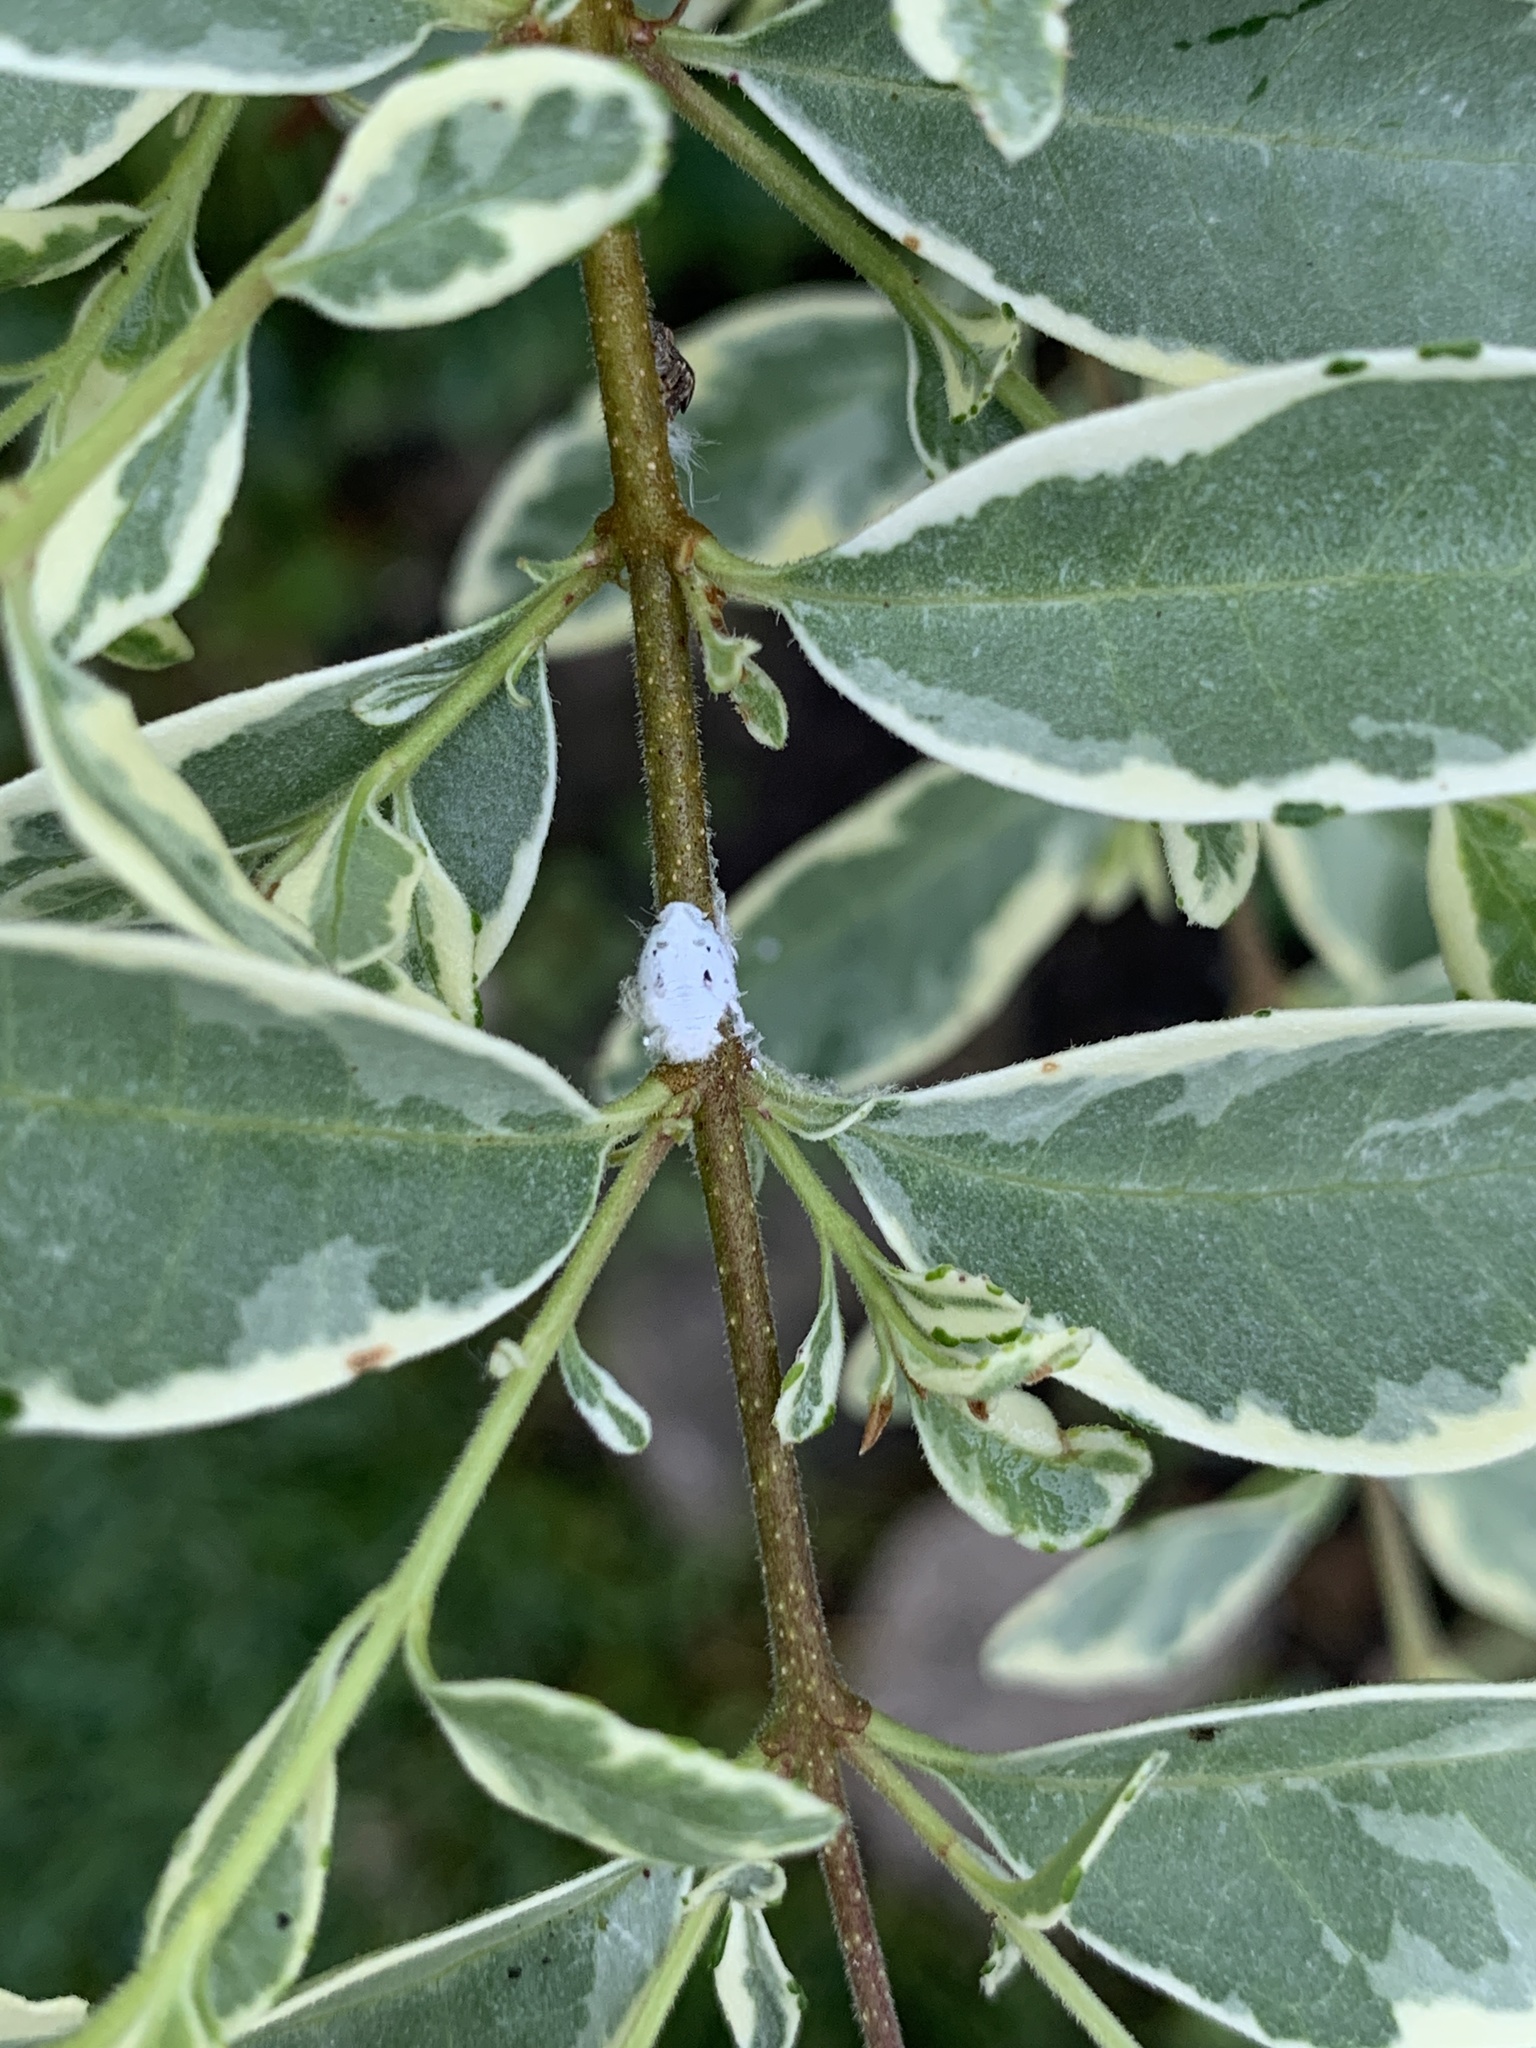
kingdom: Animalia
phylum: Arthropoda
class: Insecta
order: Hemiptera
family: Flatidae
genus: Metcalfa
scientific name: Metcalfa pruinosa
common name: Citrus flatid planthopper
